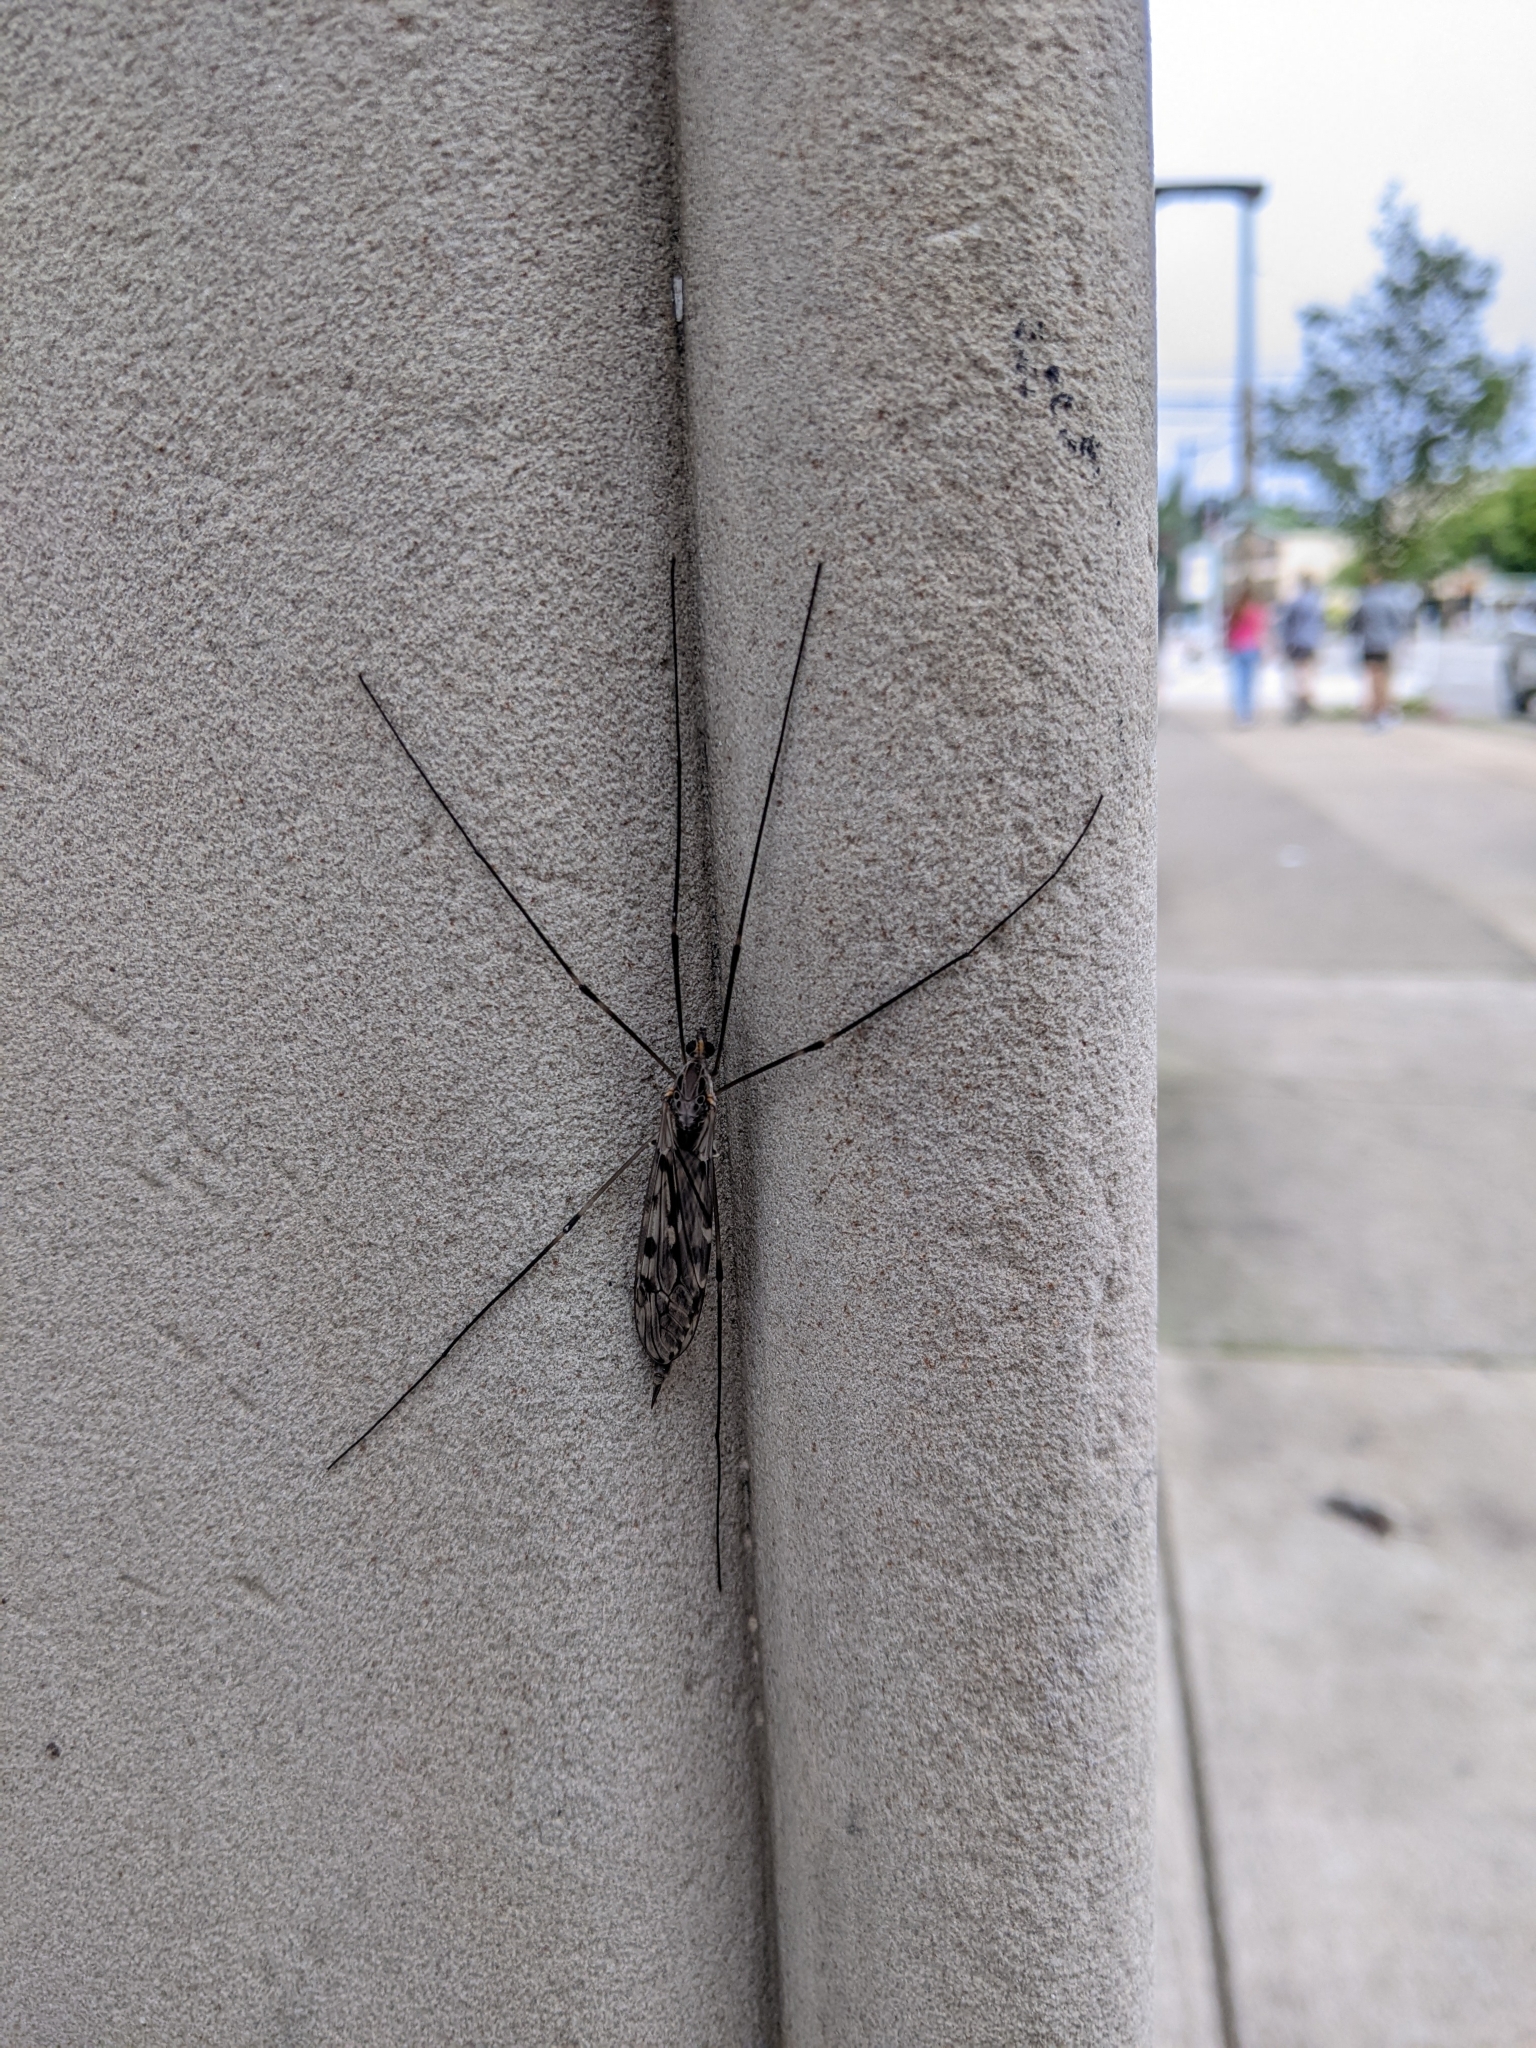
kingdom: Animalia
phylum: Arthropoda
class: Insecta
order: Diptera
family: Tipulidae
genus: Tipula
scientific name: Tipula abdominalis
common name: Giant crane fly
